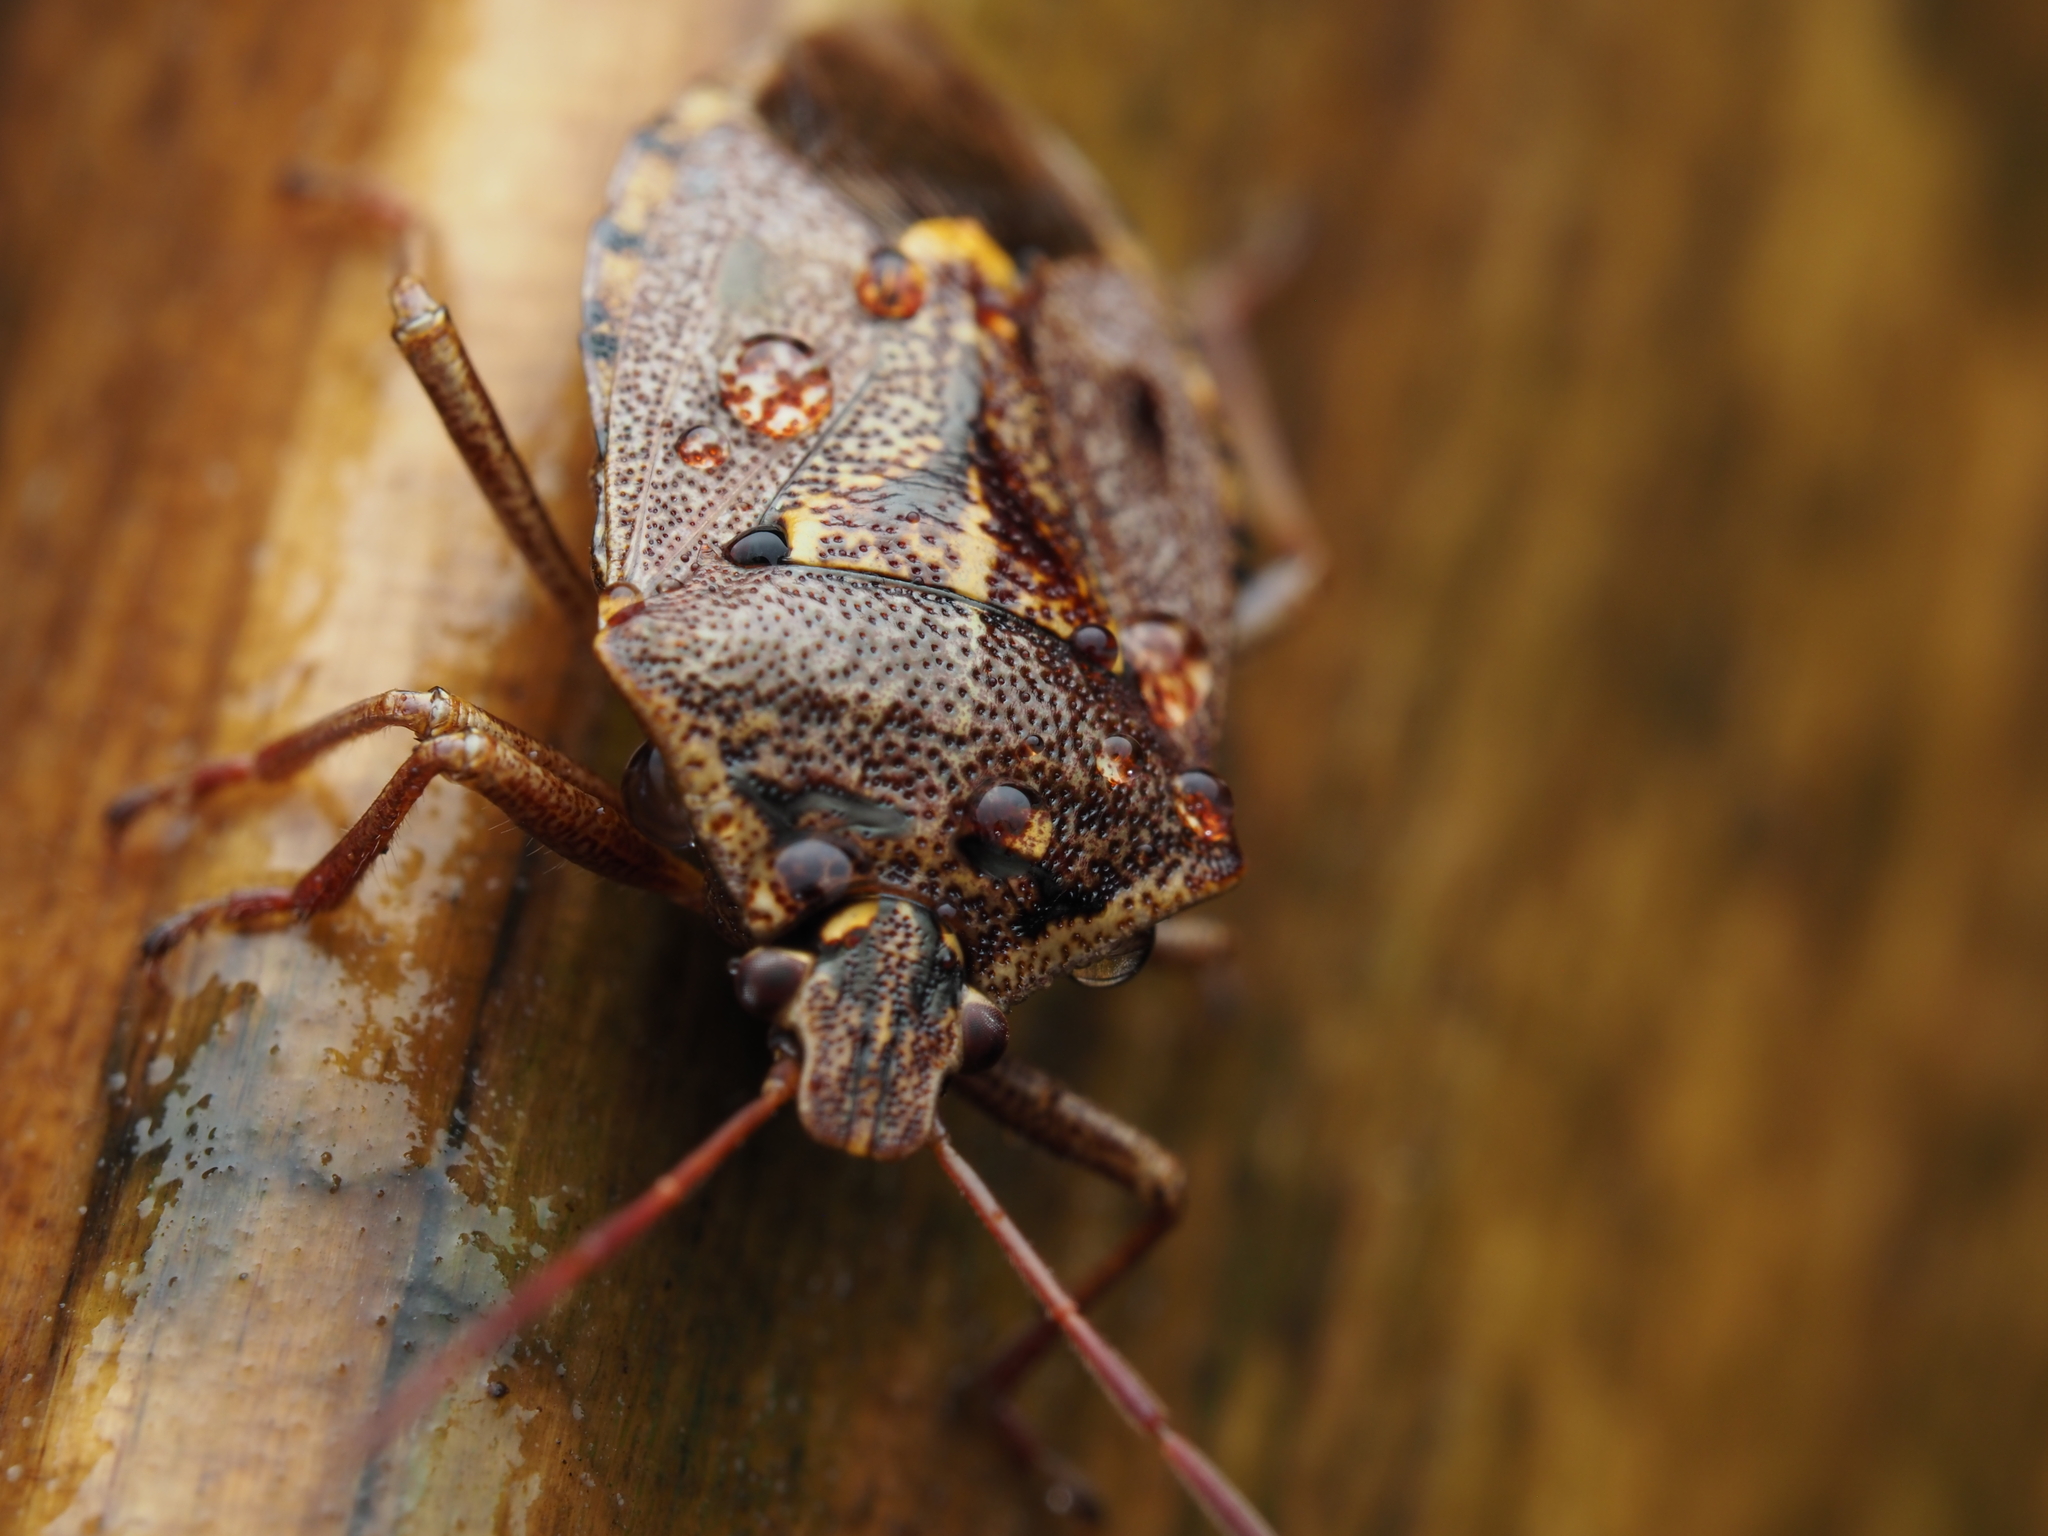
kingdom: Animalia
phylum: Arthropoda
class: Insecta
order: Hemiptera
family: Pentatomidae
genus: Cermatulus
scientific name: Cermatulus nasalis
